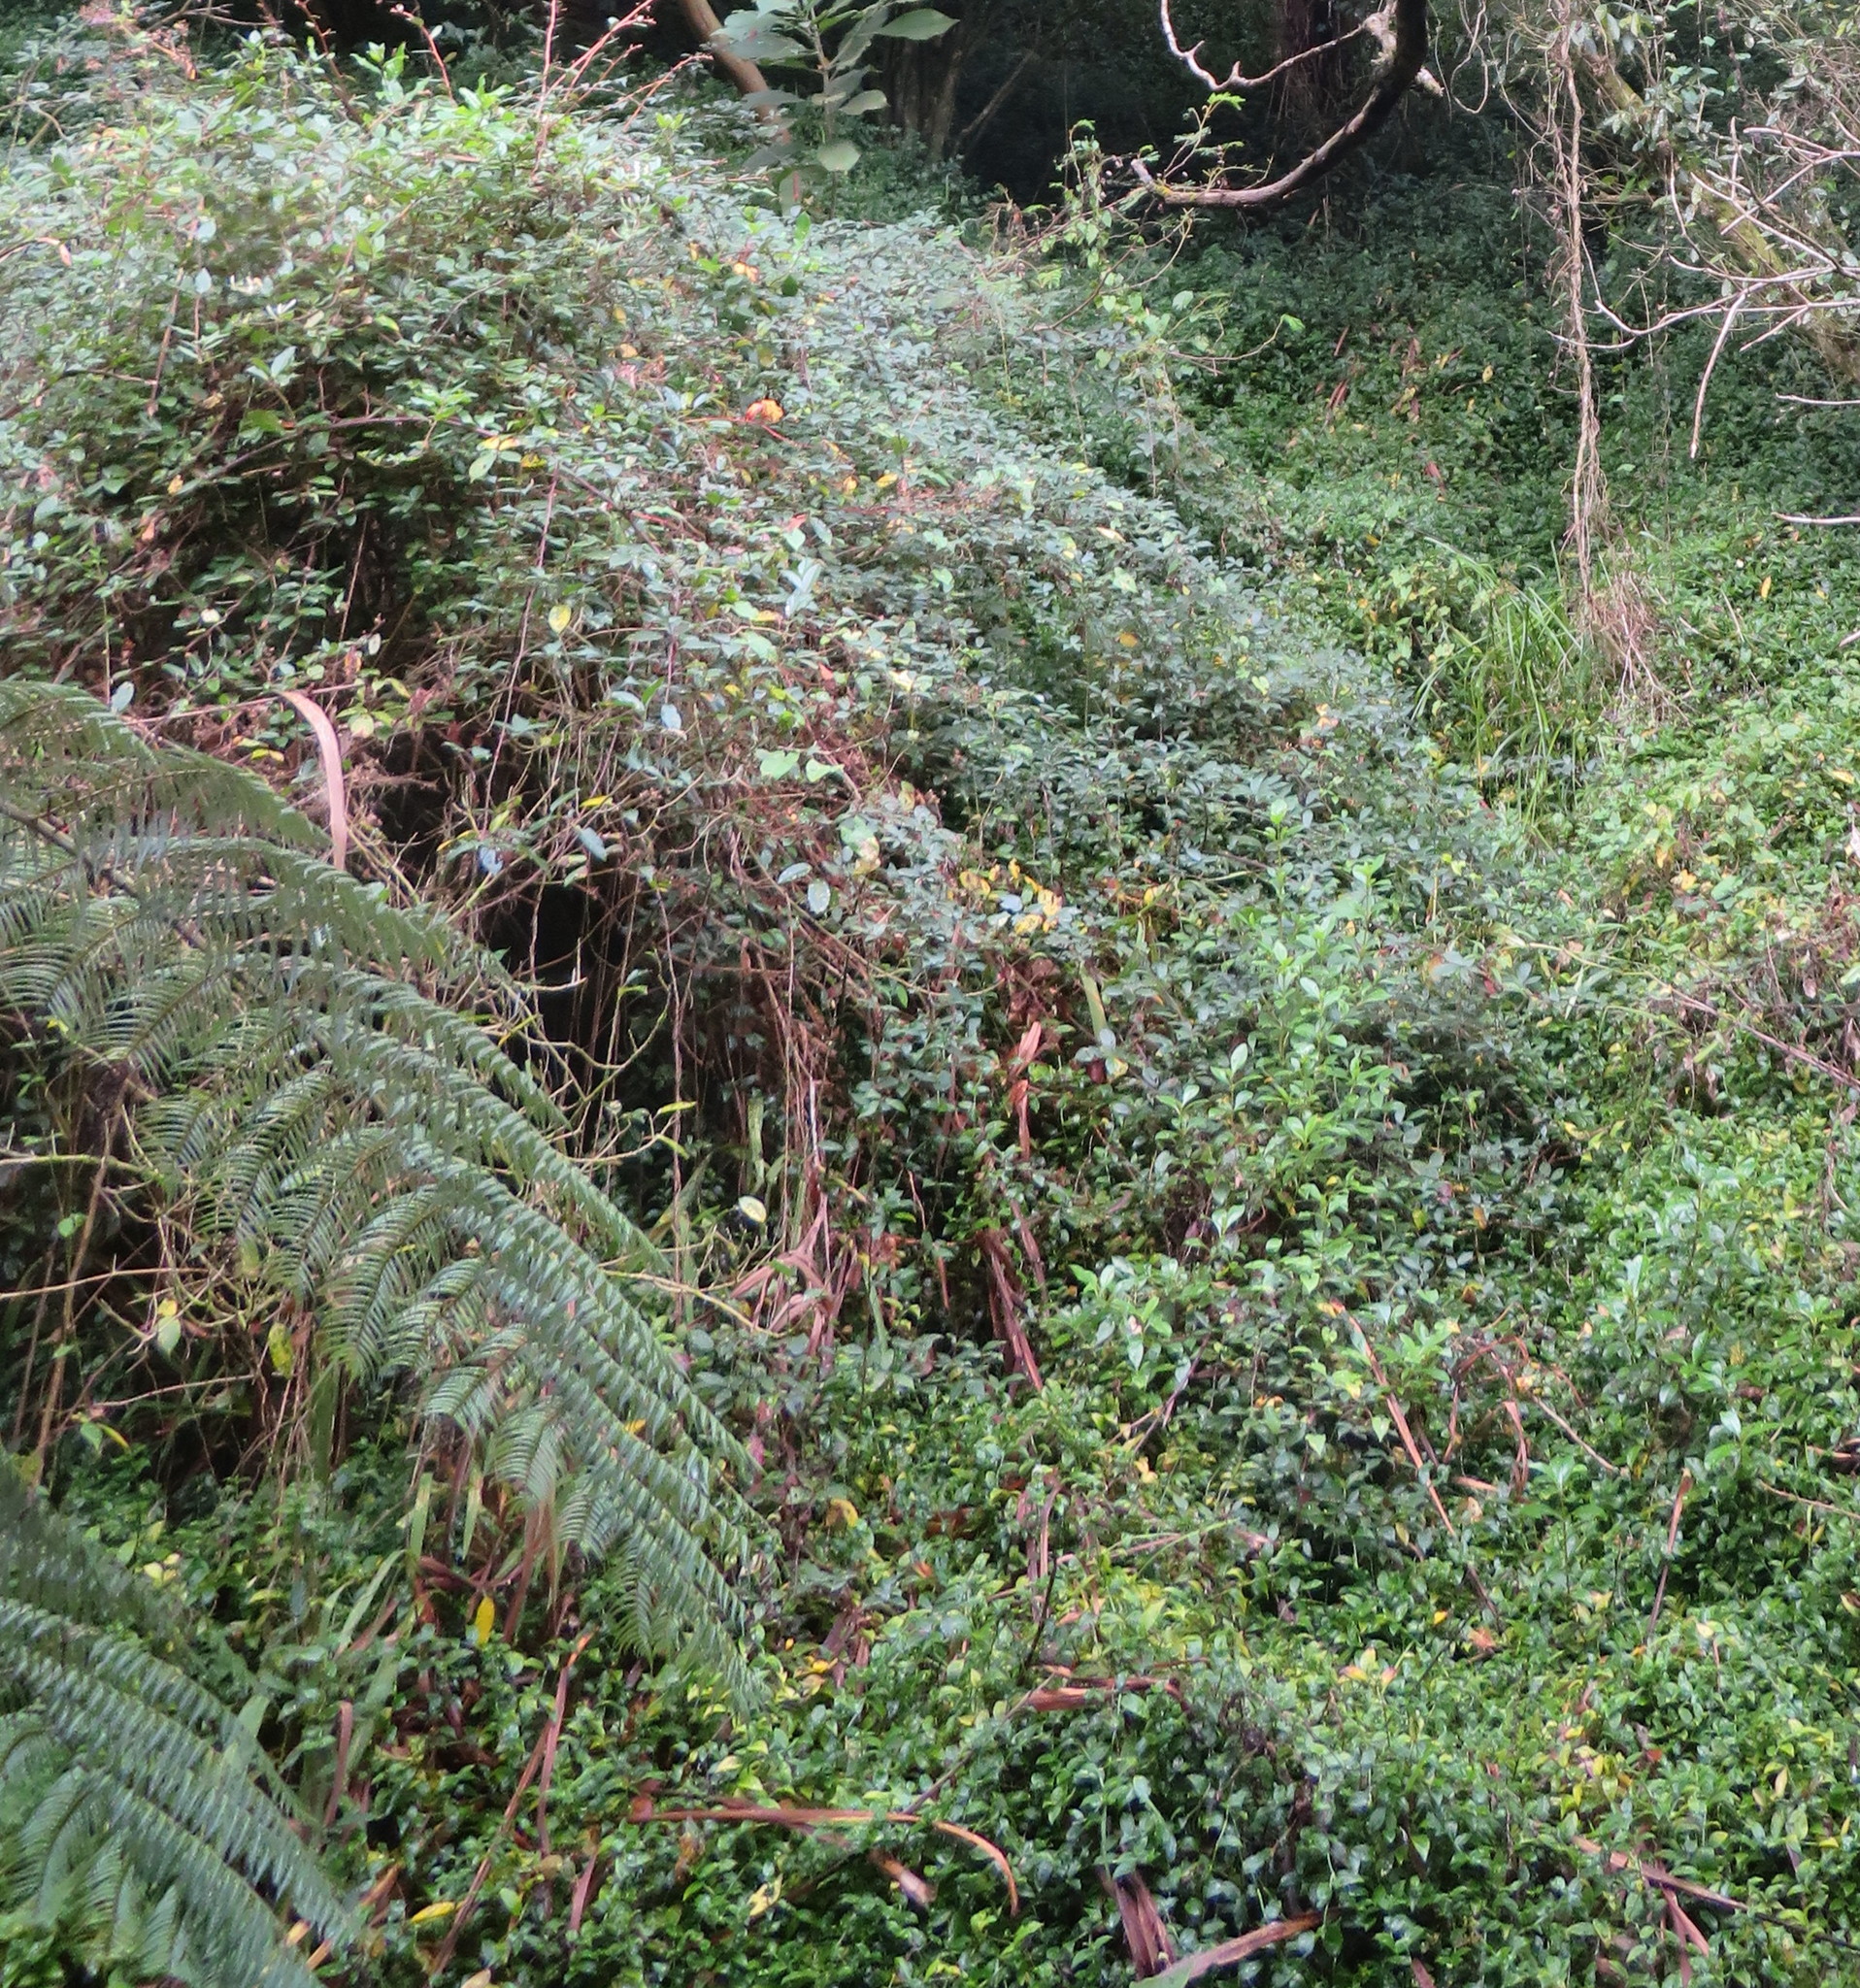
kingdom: Plantae
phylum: Tracheophyta
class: Liliopsida
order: Commelinales
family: Commelinaceae
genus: Tradescantia
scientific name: Tradescantia fluminensis
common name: Wandering-jew
